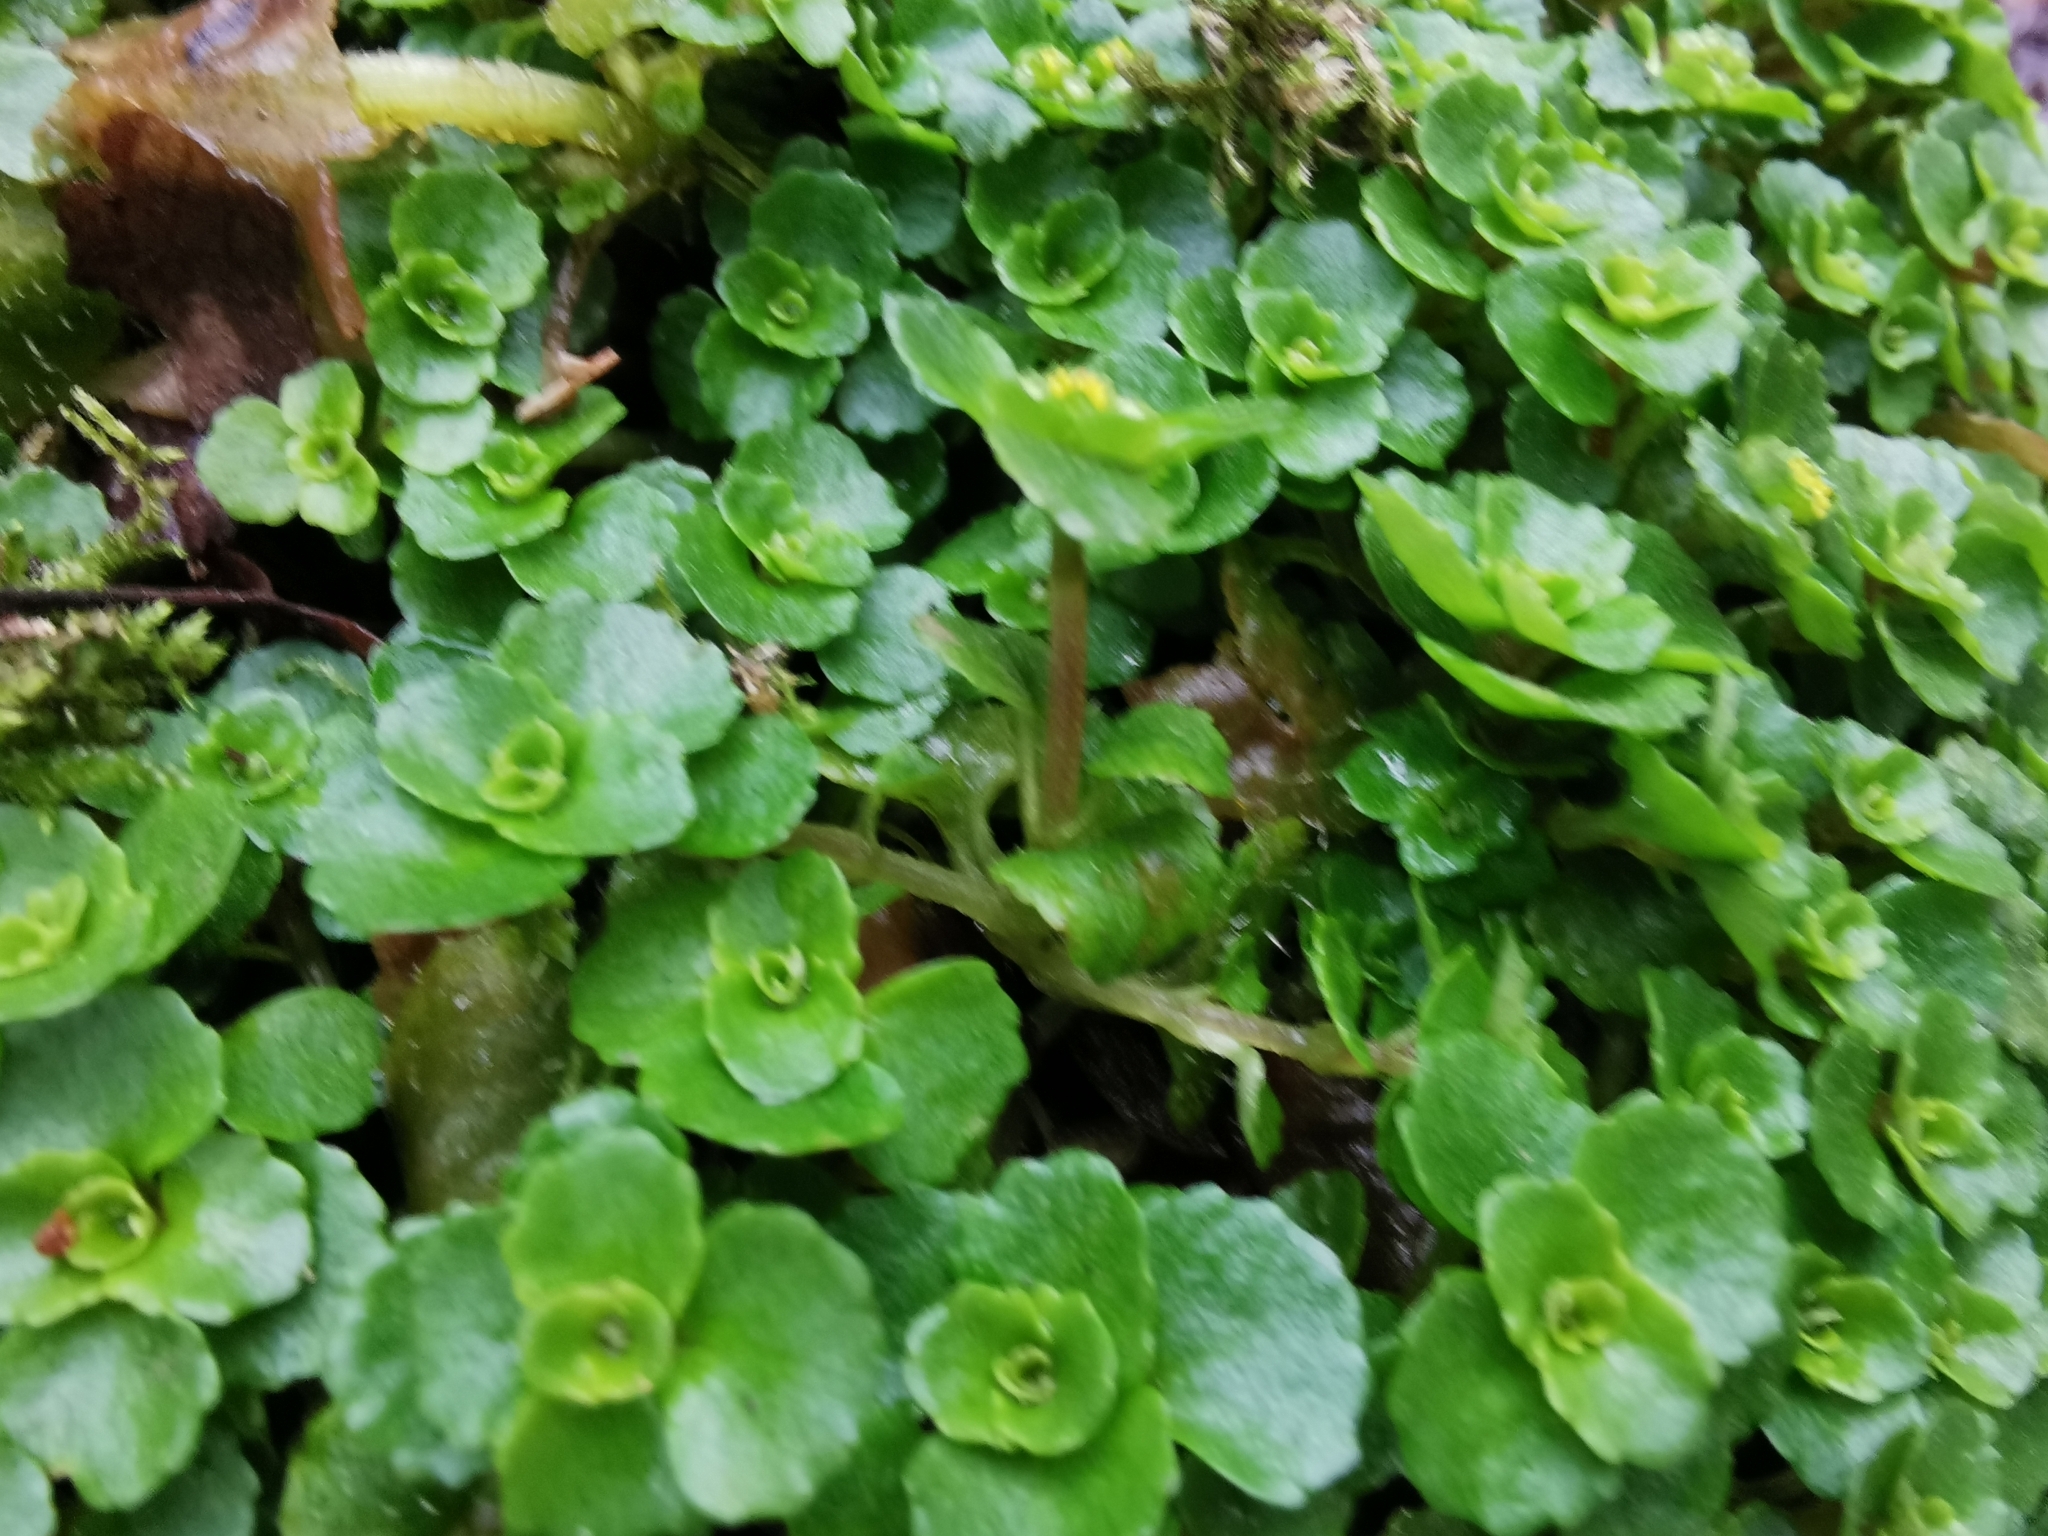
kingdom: Plantae
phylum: Tracheophyta
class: Magnoliopsida
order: Saxifragales
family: Saxifragaceae
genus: Chrysosplenium
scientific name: Chrysosplenium oppositifolium
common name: Opposite-leaved golden-saxifrage
